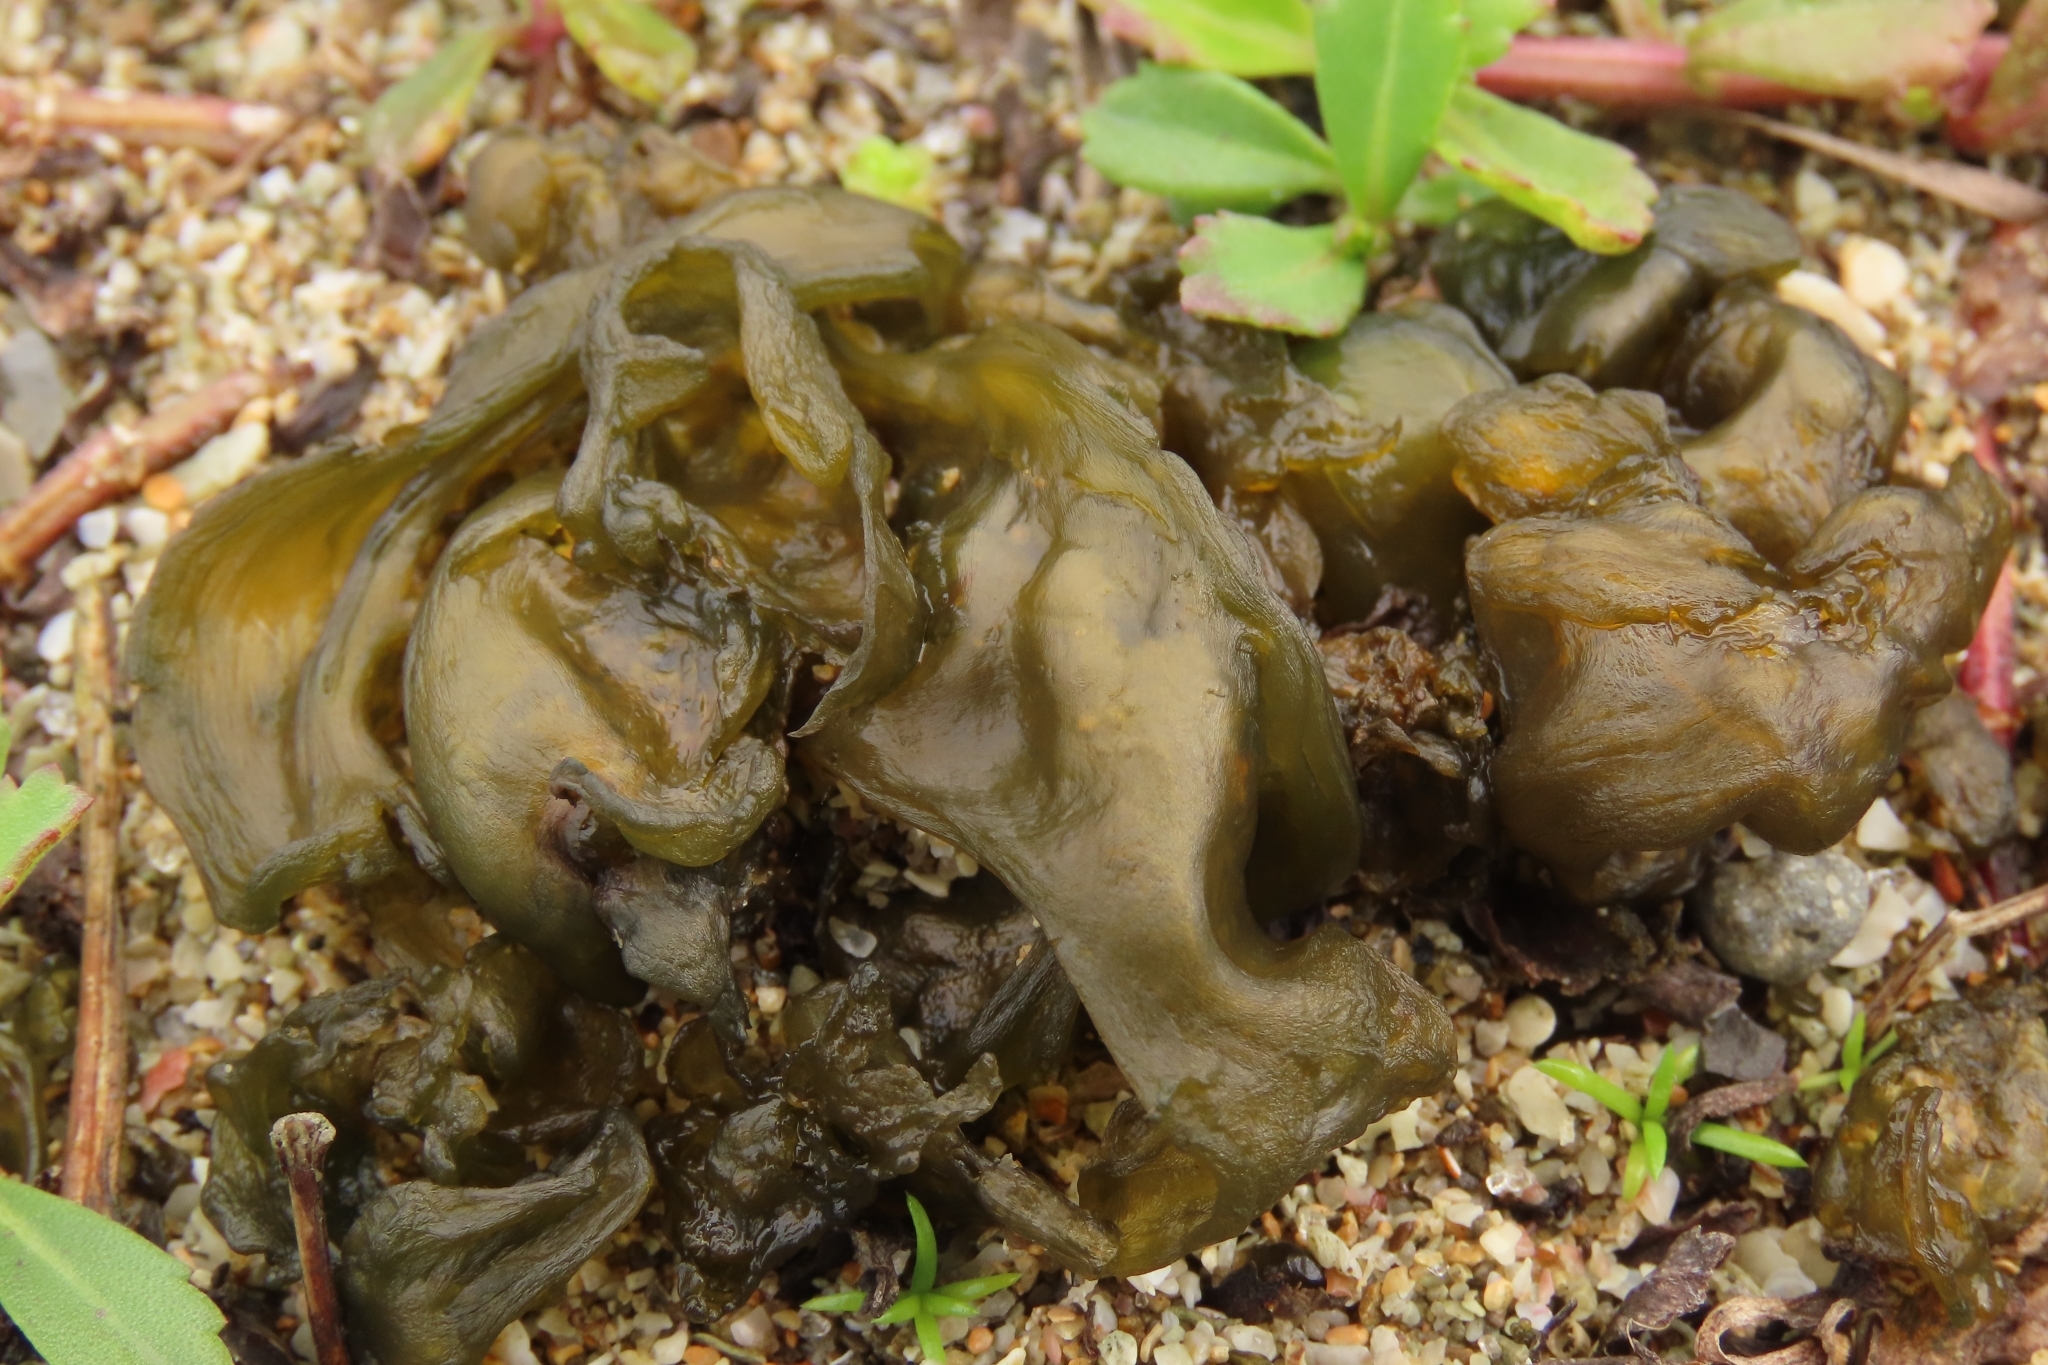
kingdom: Bacteria
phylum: Cyanobacteria
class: Cyanobacteriia
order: Cyanobacteriales
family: Nostocaceae
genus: Nostoc
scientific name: Nostoc commune
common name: Star jelly
